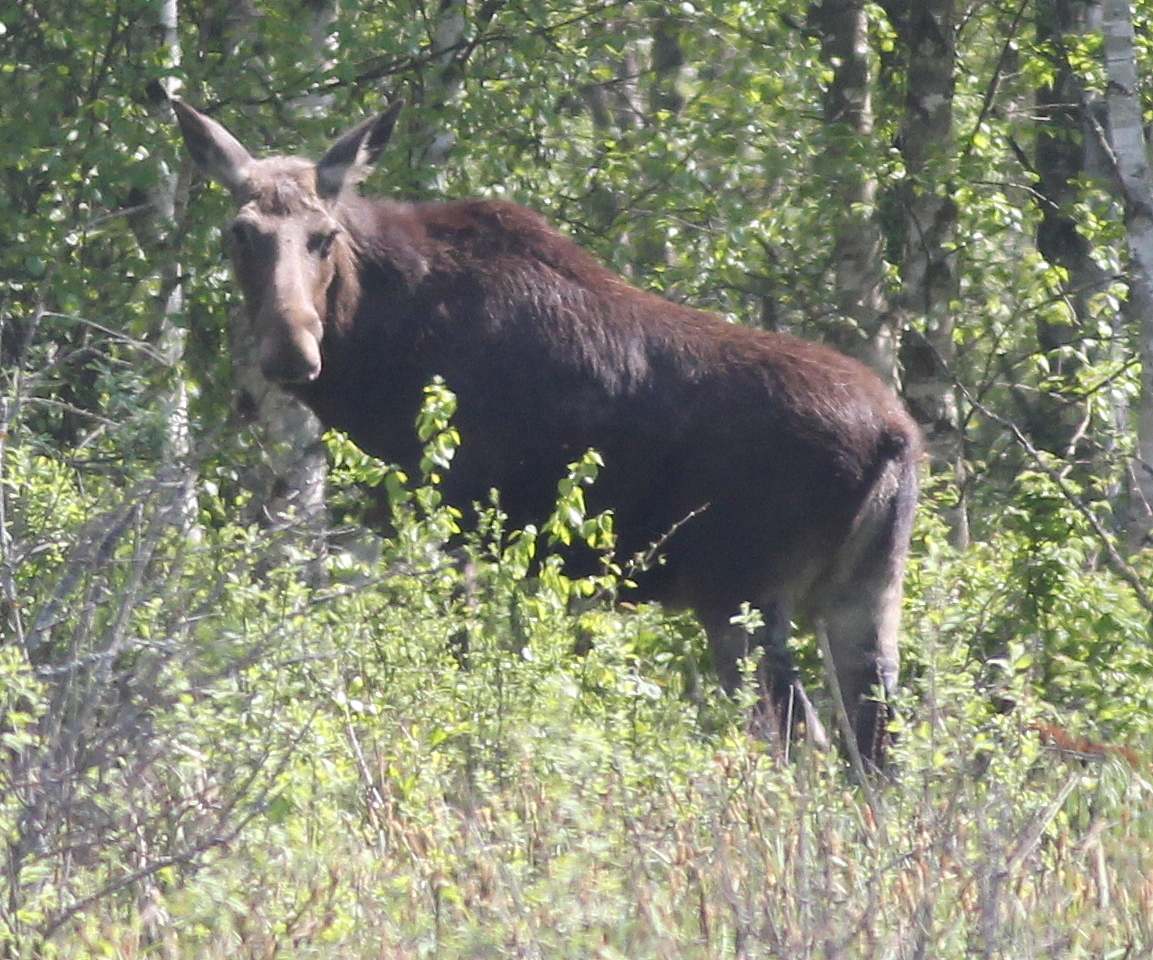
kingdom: Animalia
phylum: Chordata
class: Mammalia
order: Artiodactyla
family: Cervidae
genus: Alces
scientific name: Alces alces
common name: Moose
